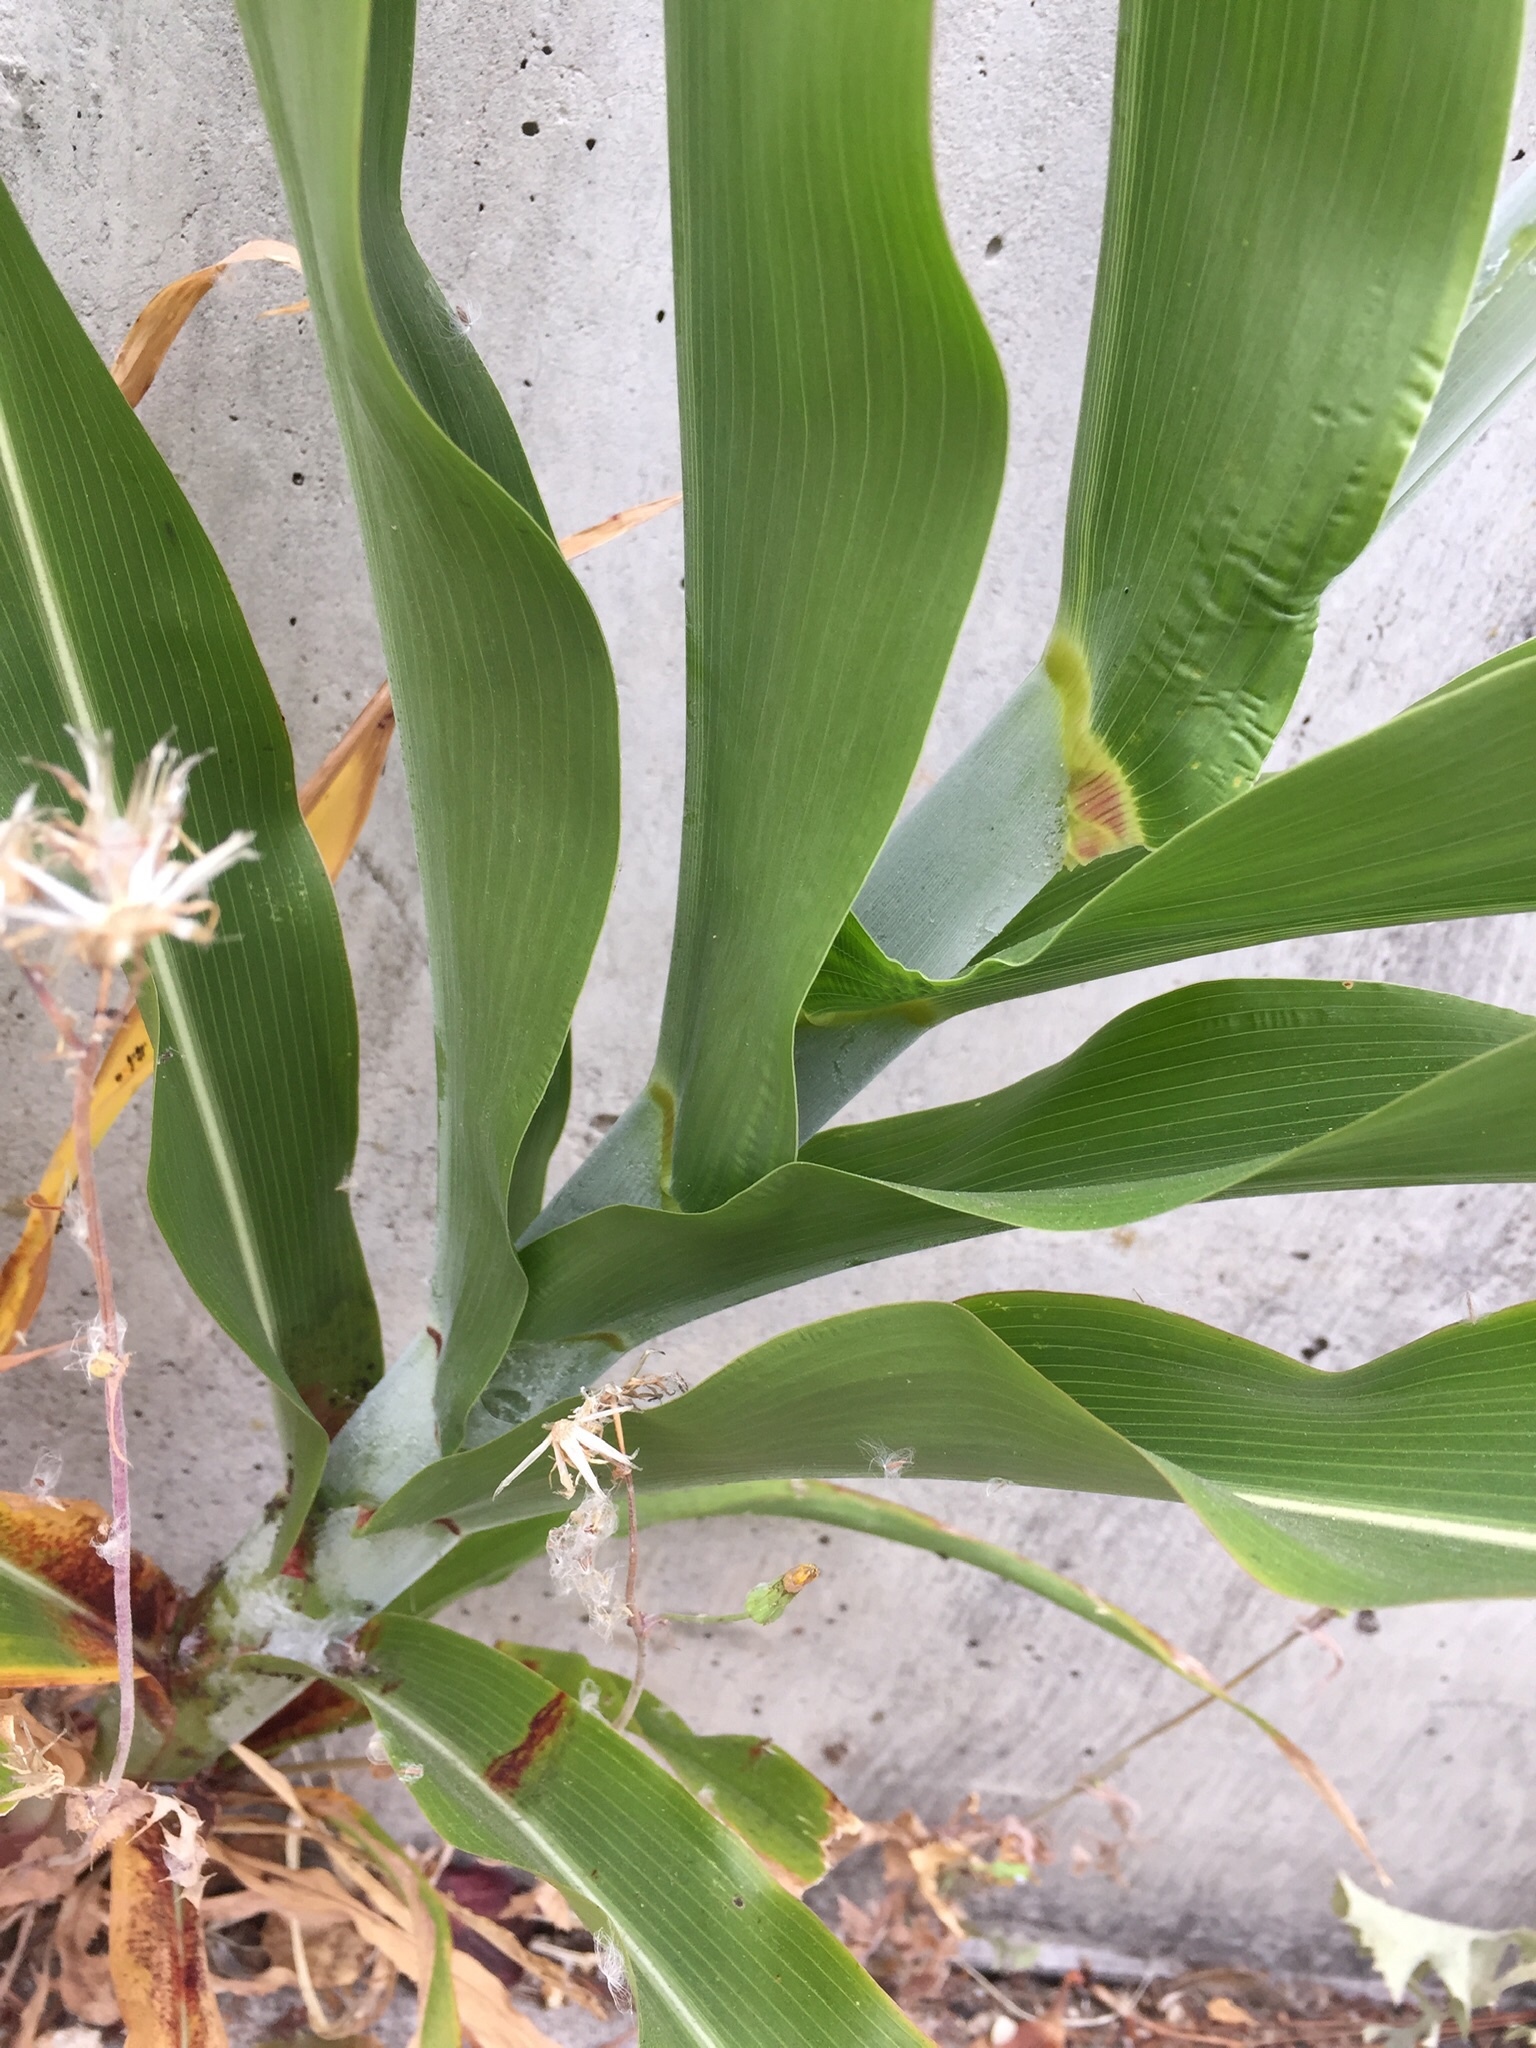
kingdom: Plantae
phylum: Tracheophyta
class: Liliopsida
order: Poales
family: Poaceae
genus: Sorghum
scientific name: Sorghum bicolor
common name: Sorghum
